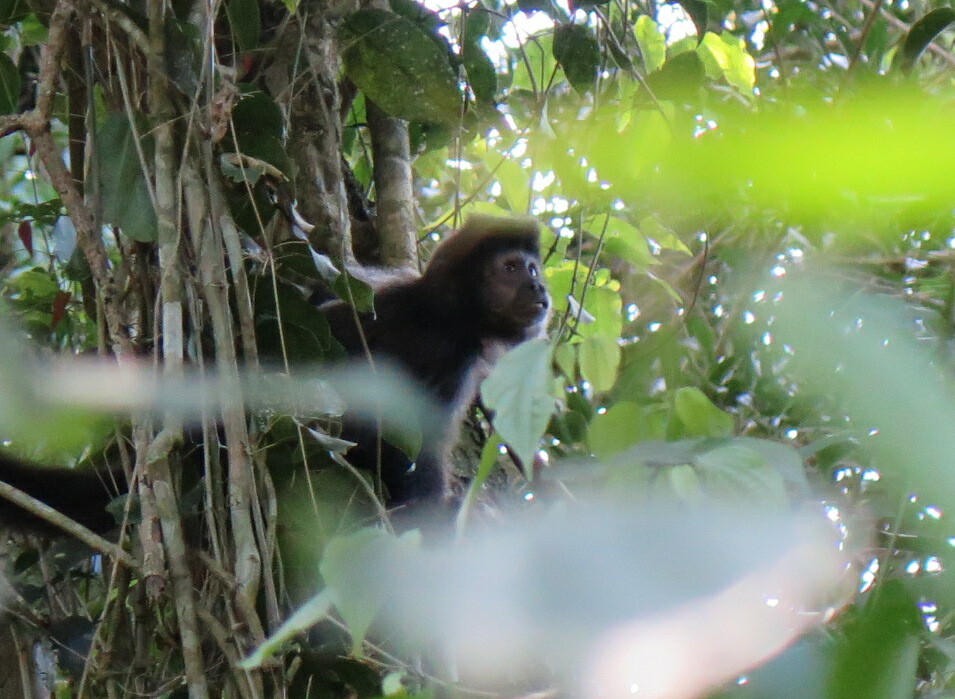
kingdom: Animalia
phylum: Chordata
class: Mammalia
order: Primates
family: Cebidae
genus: Sapajus
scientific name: Sapajus nigritus
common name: Black capuchin
